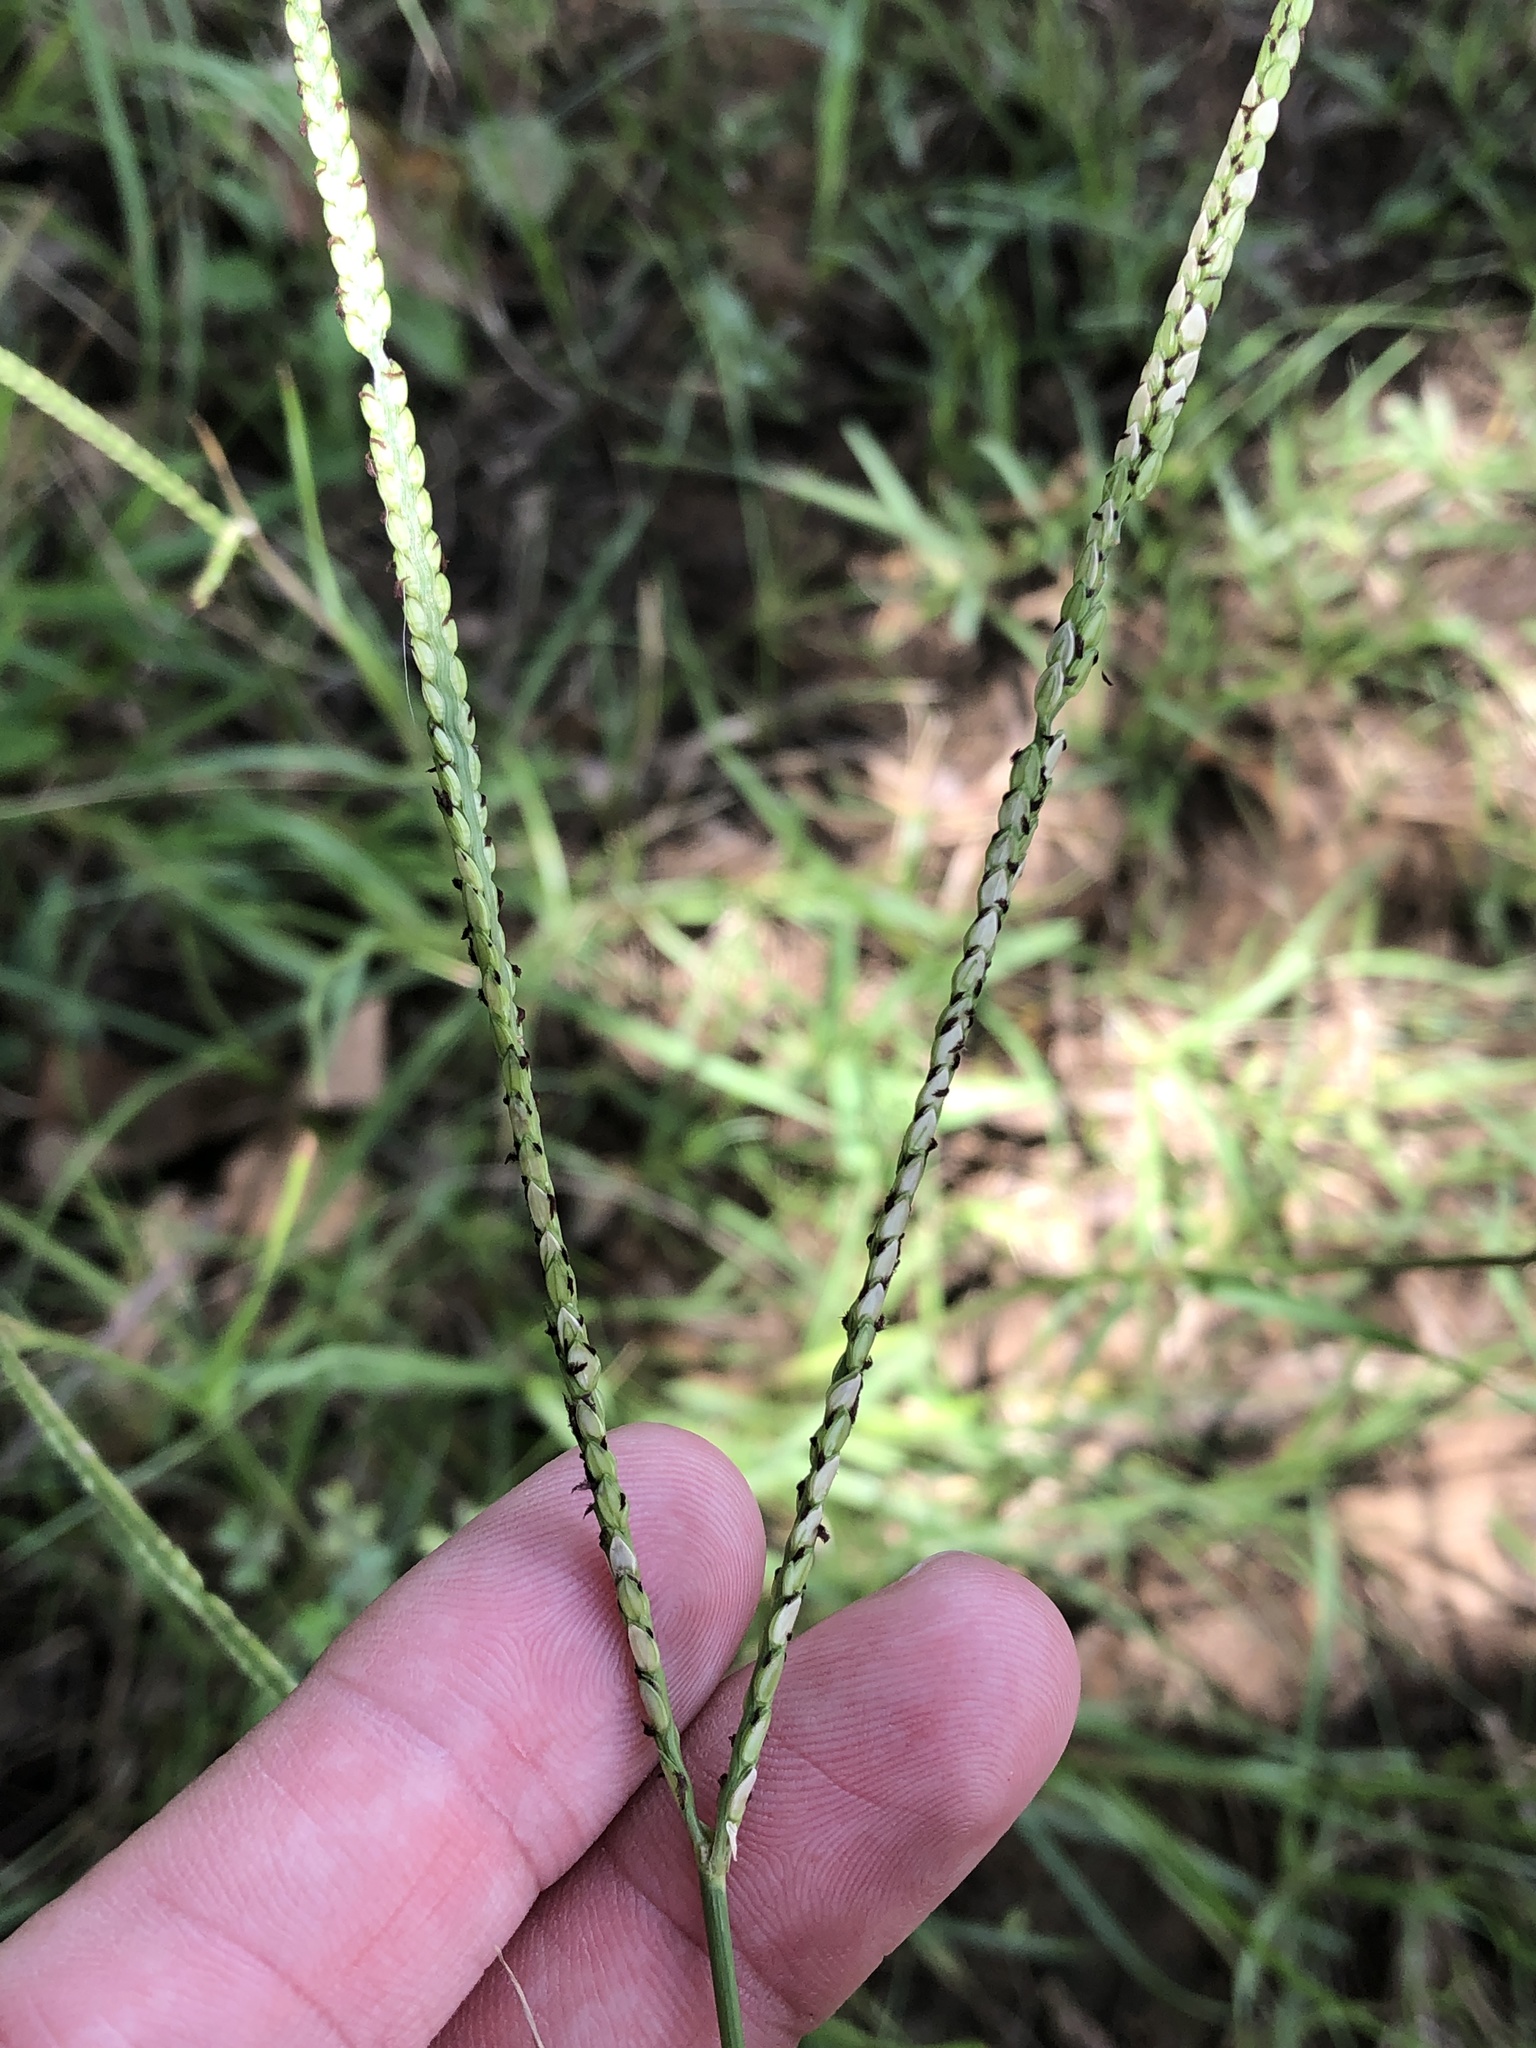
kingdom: Plantae
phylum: Tracheophyta
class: Liliopsida
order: Poales
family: Poaceae
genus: Paspalum
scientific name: Paspalum notatum
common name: Bahiagrass
